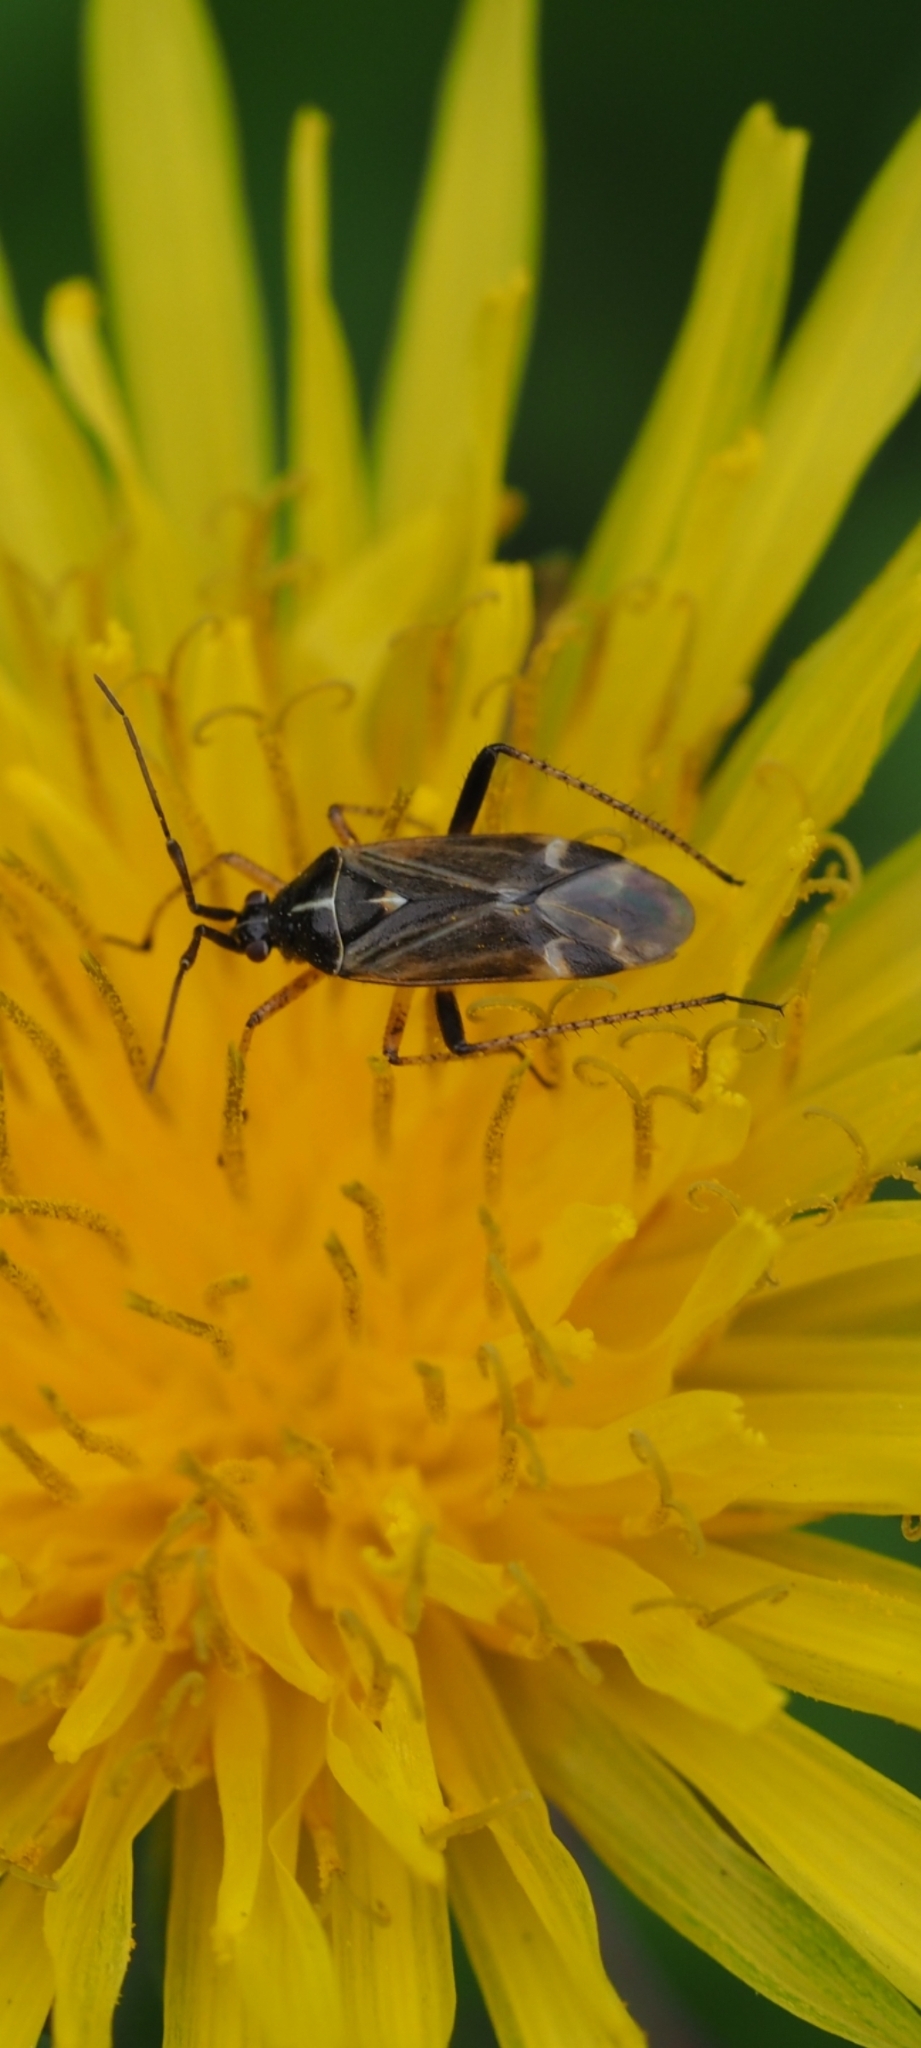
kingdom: Animalia
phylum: Arthropoda
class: Insecta
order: Hemiptera
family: Miridae
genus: Harpocera
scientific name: Harpocera thoracica
